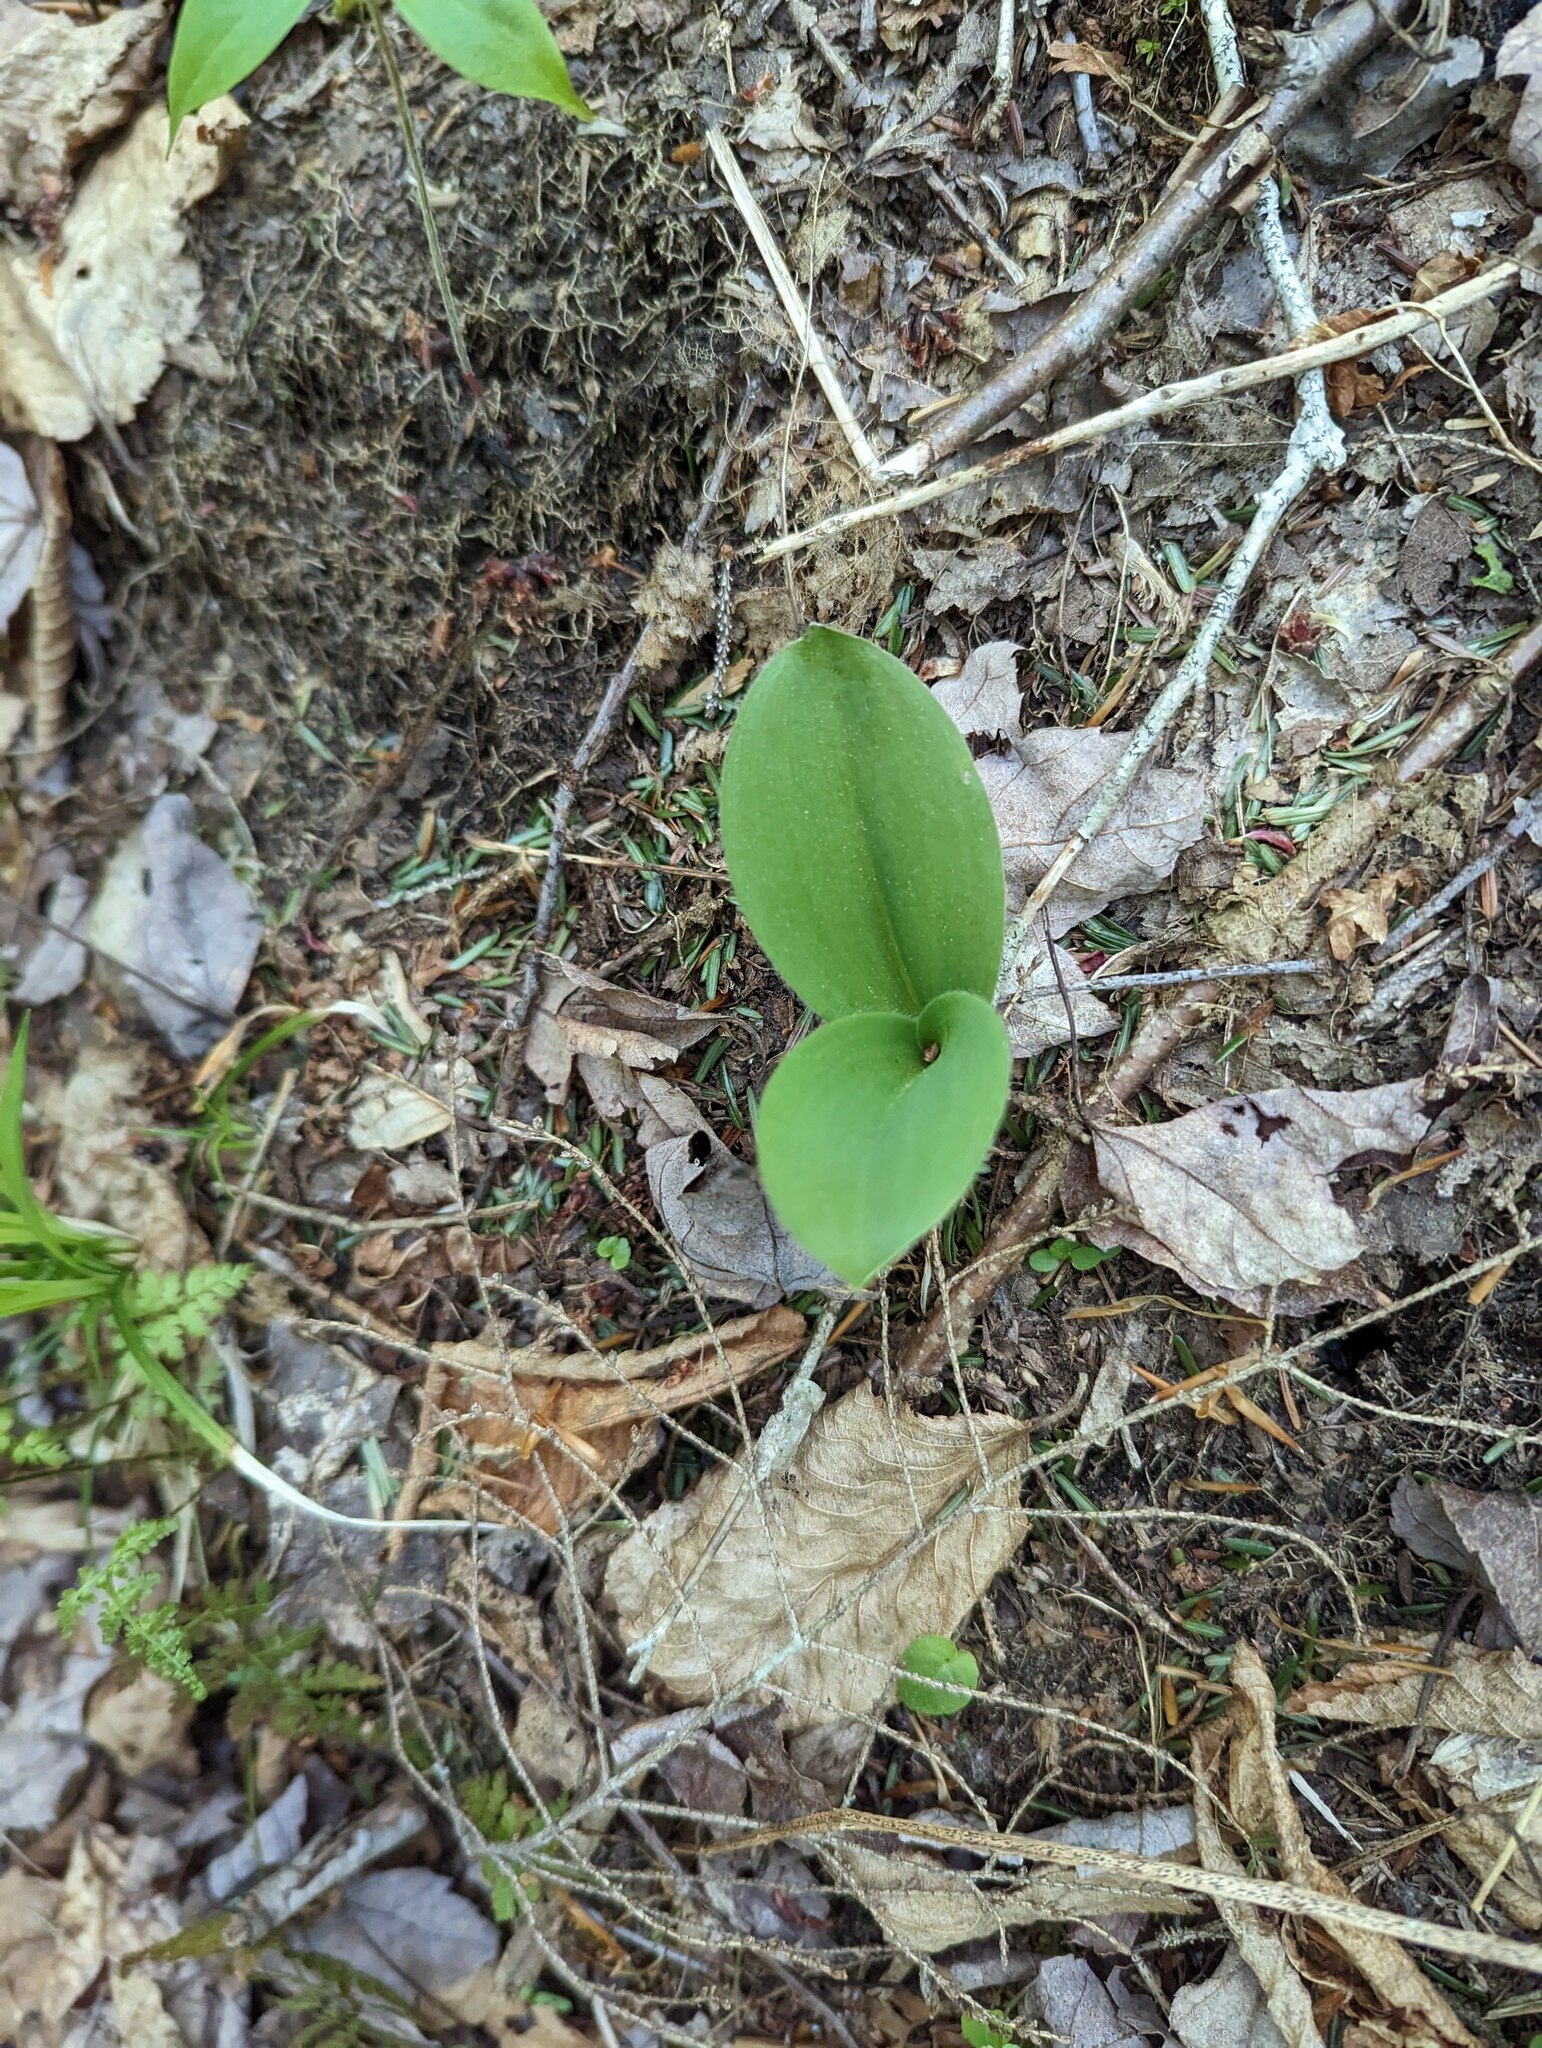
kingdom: Plantae
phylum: Tracheophyta
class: Liliopsida
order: Liliales
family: Liliaceae
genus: Clintonia
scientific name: Clintonia borealis
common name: Yellow clintonia
